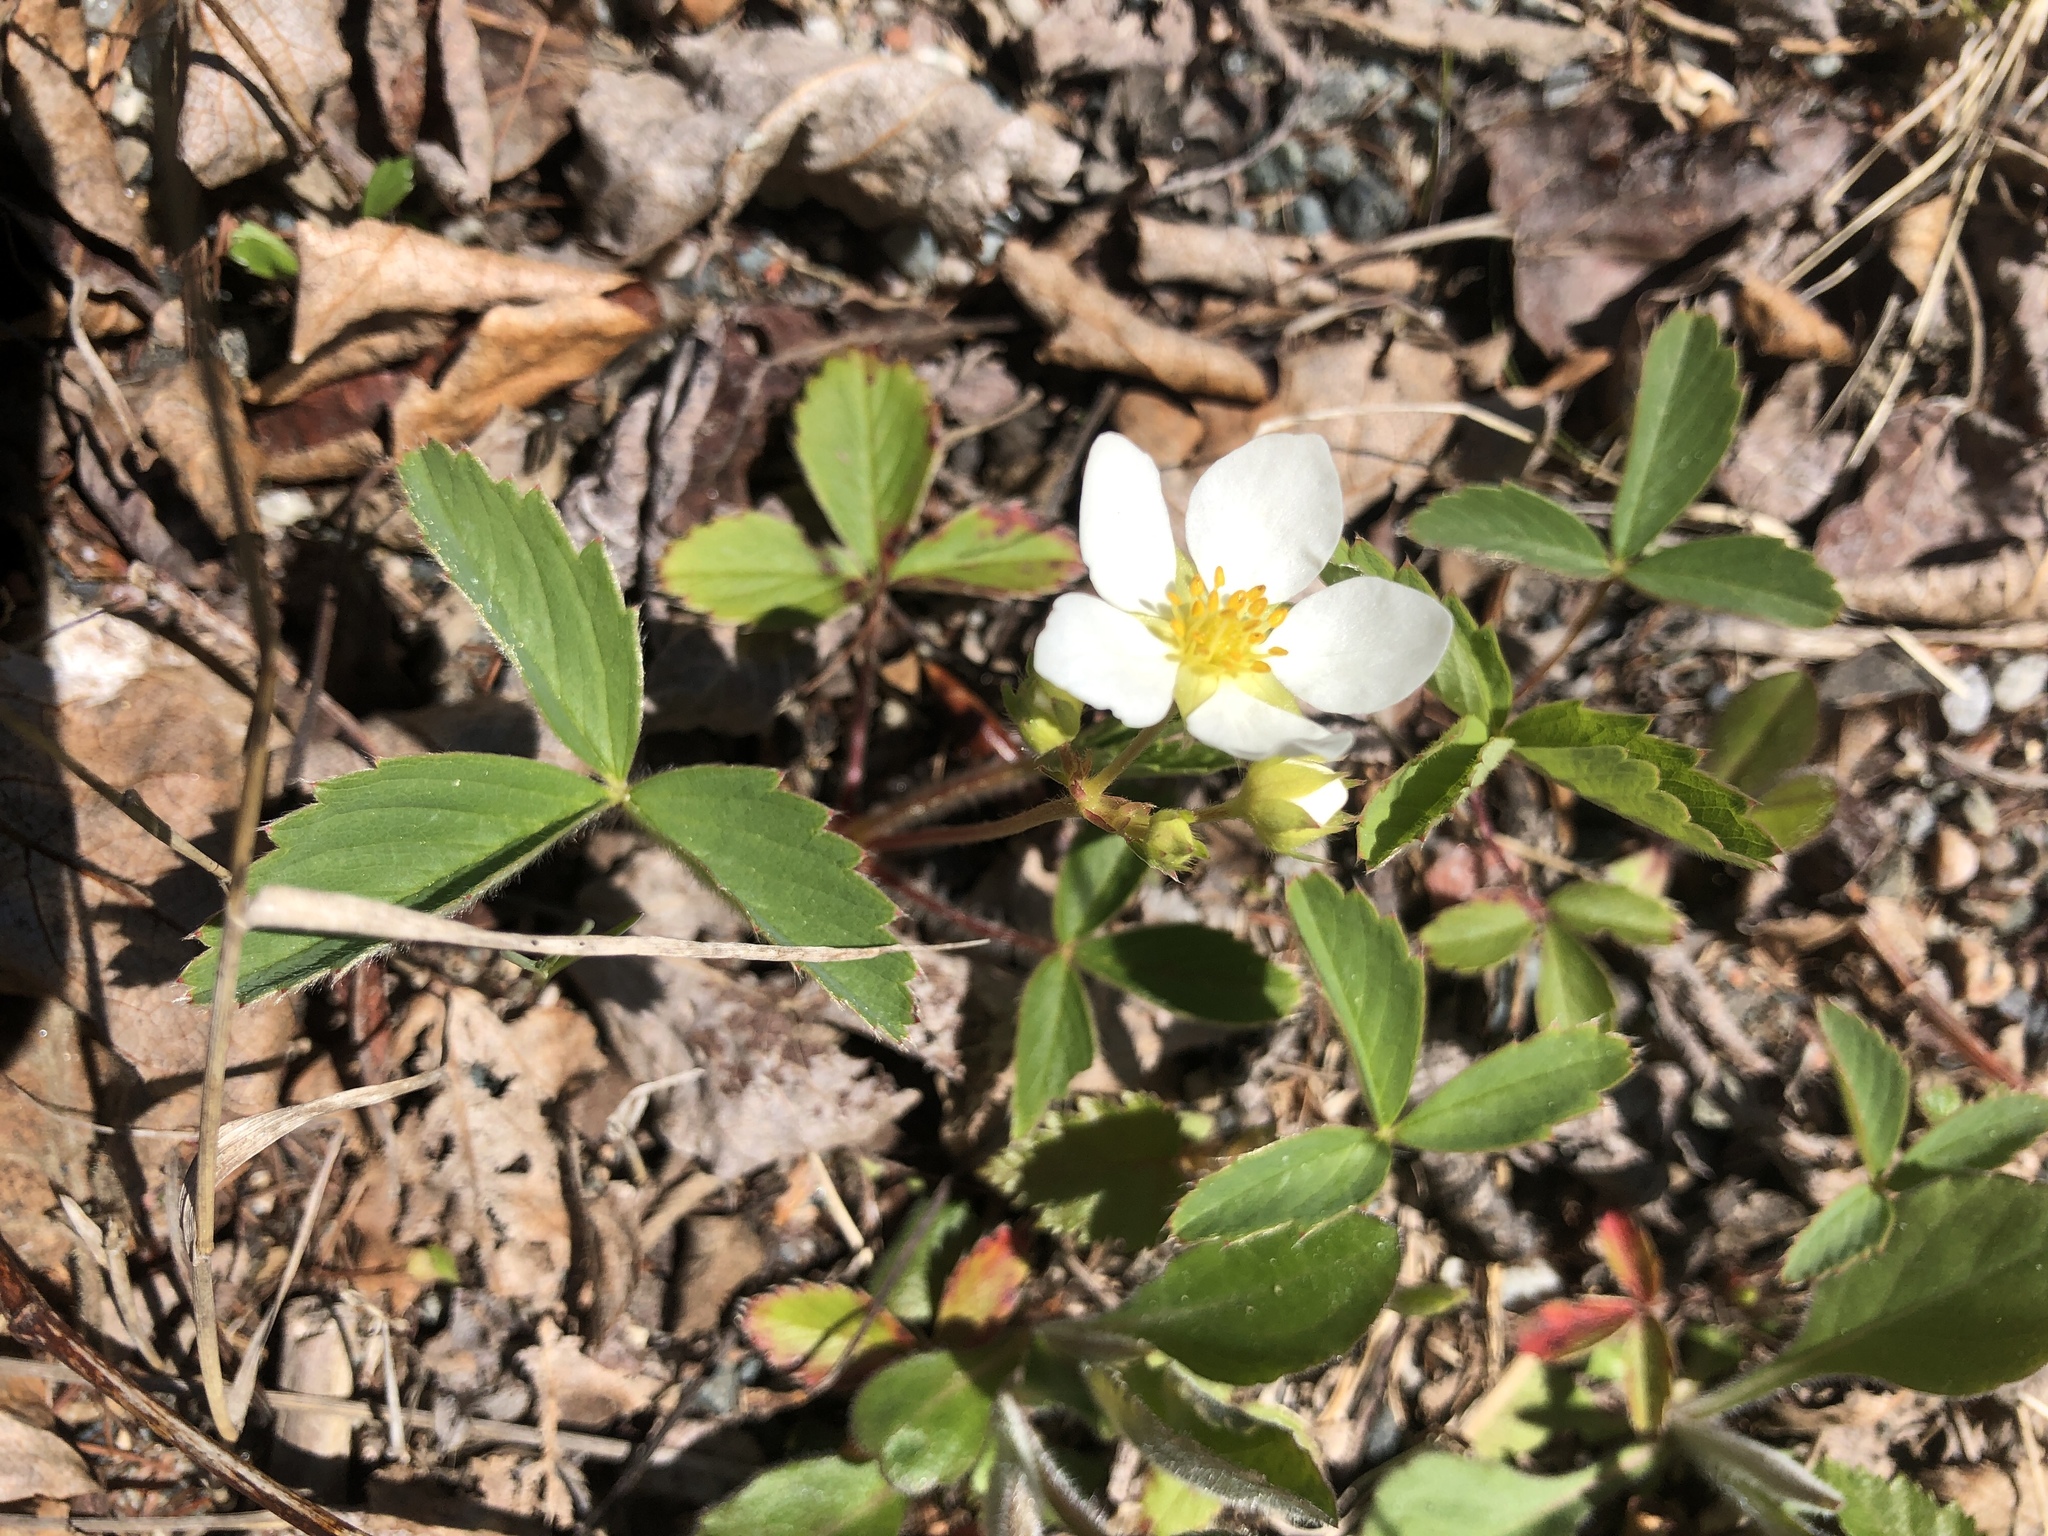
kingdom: Plantae
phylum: Tracheophyta
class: Magnoliopsida
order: Rosales
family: Rosaceae
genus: Fragaria
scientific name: Fragaria virginiana
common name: Thickleaved wild strawberry
